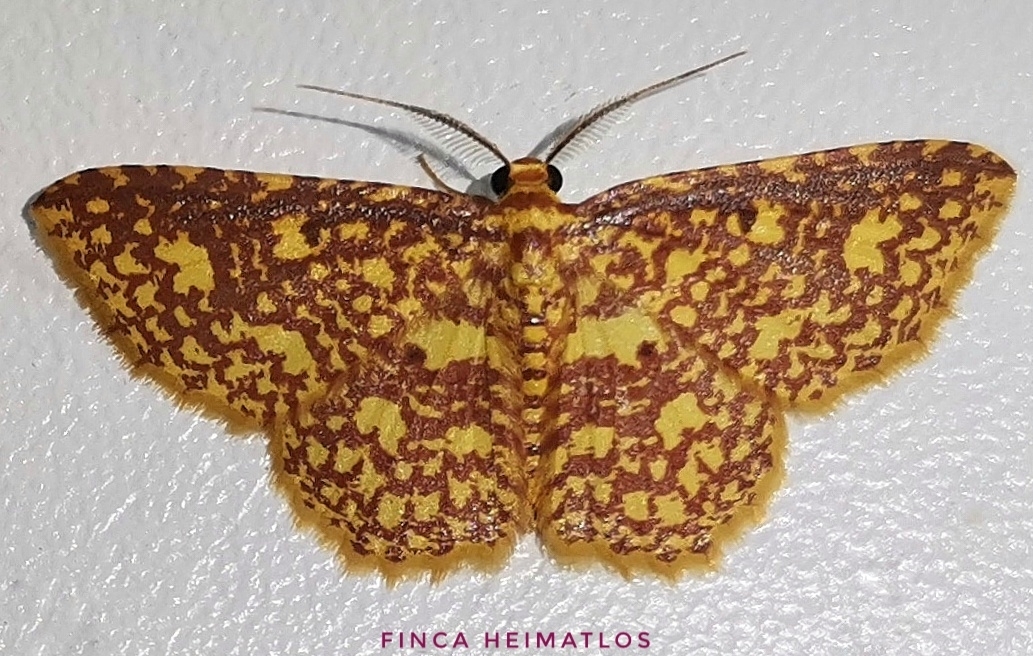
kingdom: Animalia
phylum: Arthropoda
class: Insecta
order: Lepidoptera
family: Geometridae
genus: Eois
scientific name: Eois cancellata
